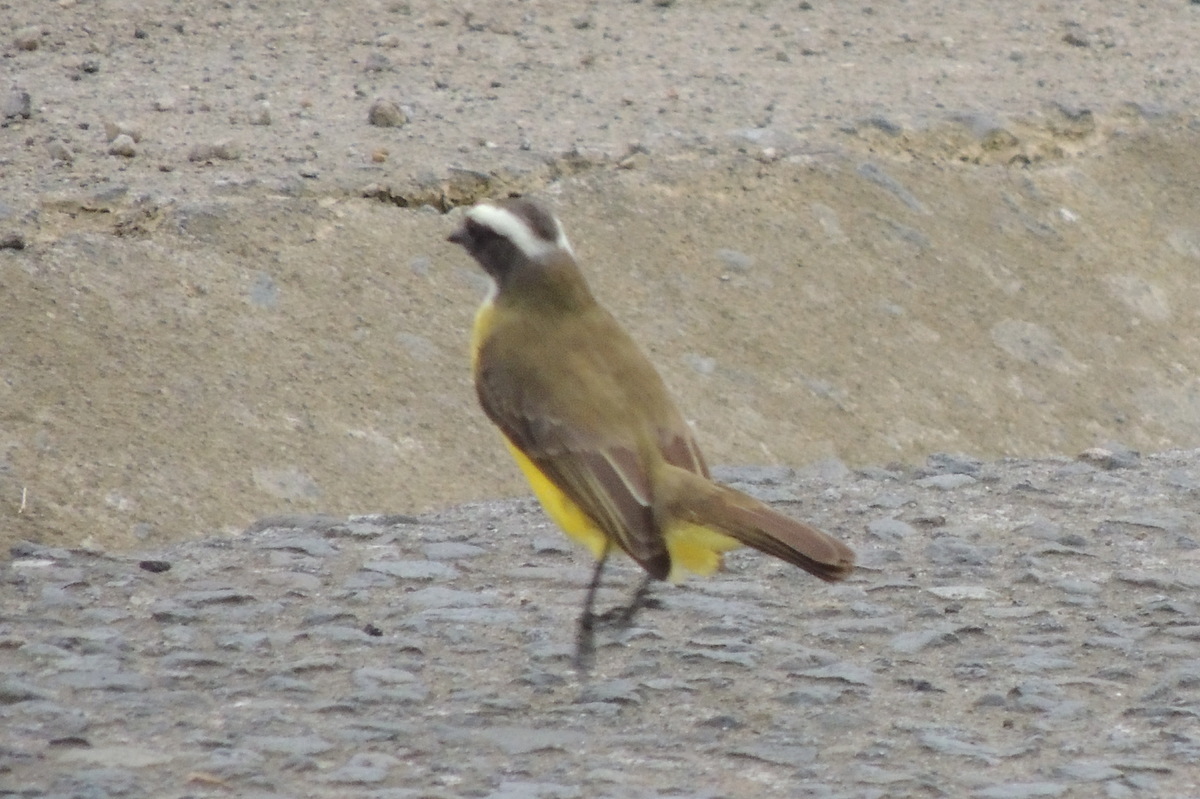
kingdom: Animalia
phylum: Chordata
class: Aves
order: Passeriformes
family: Tyrannidae
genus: Myiozetetes
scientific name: Myiozetetes similis
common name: Social flycatcher
